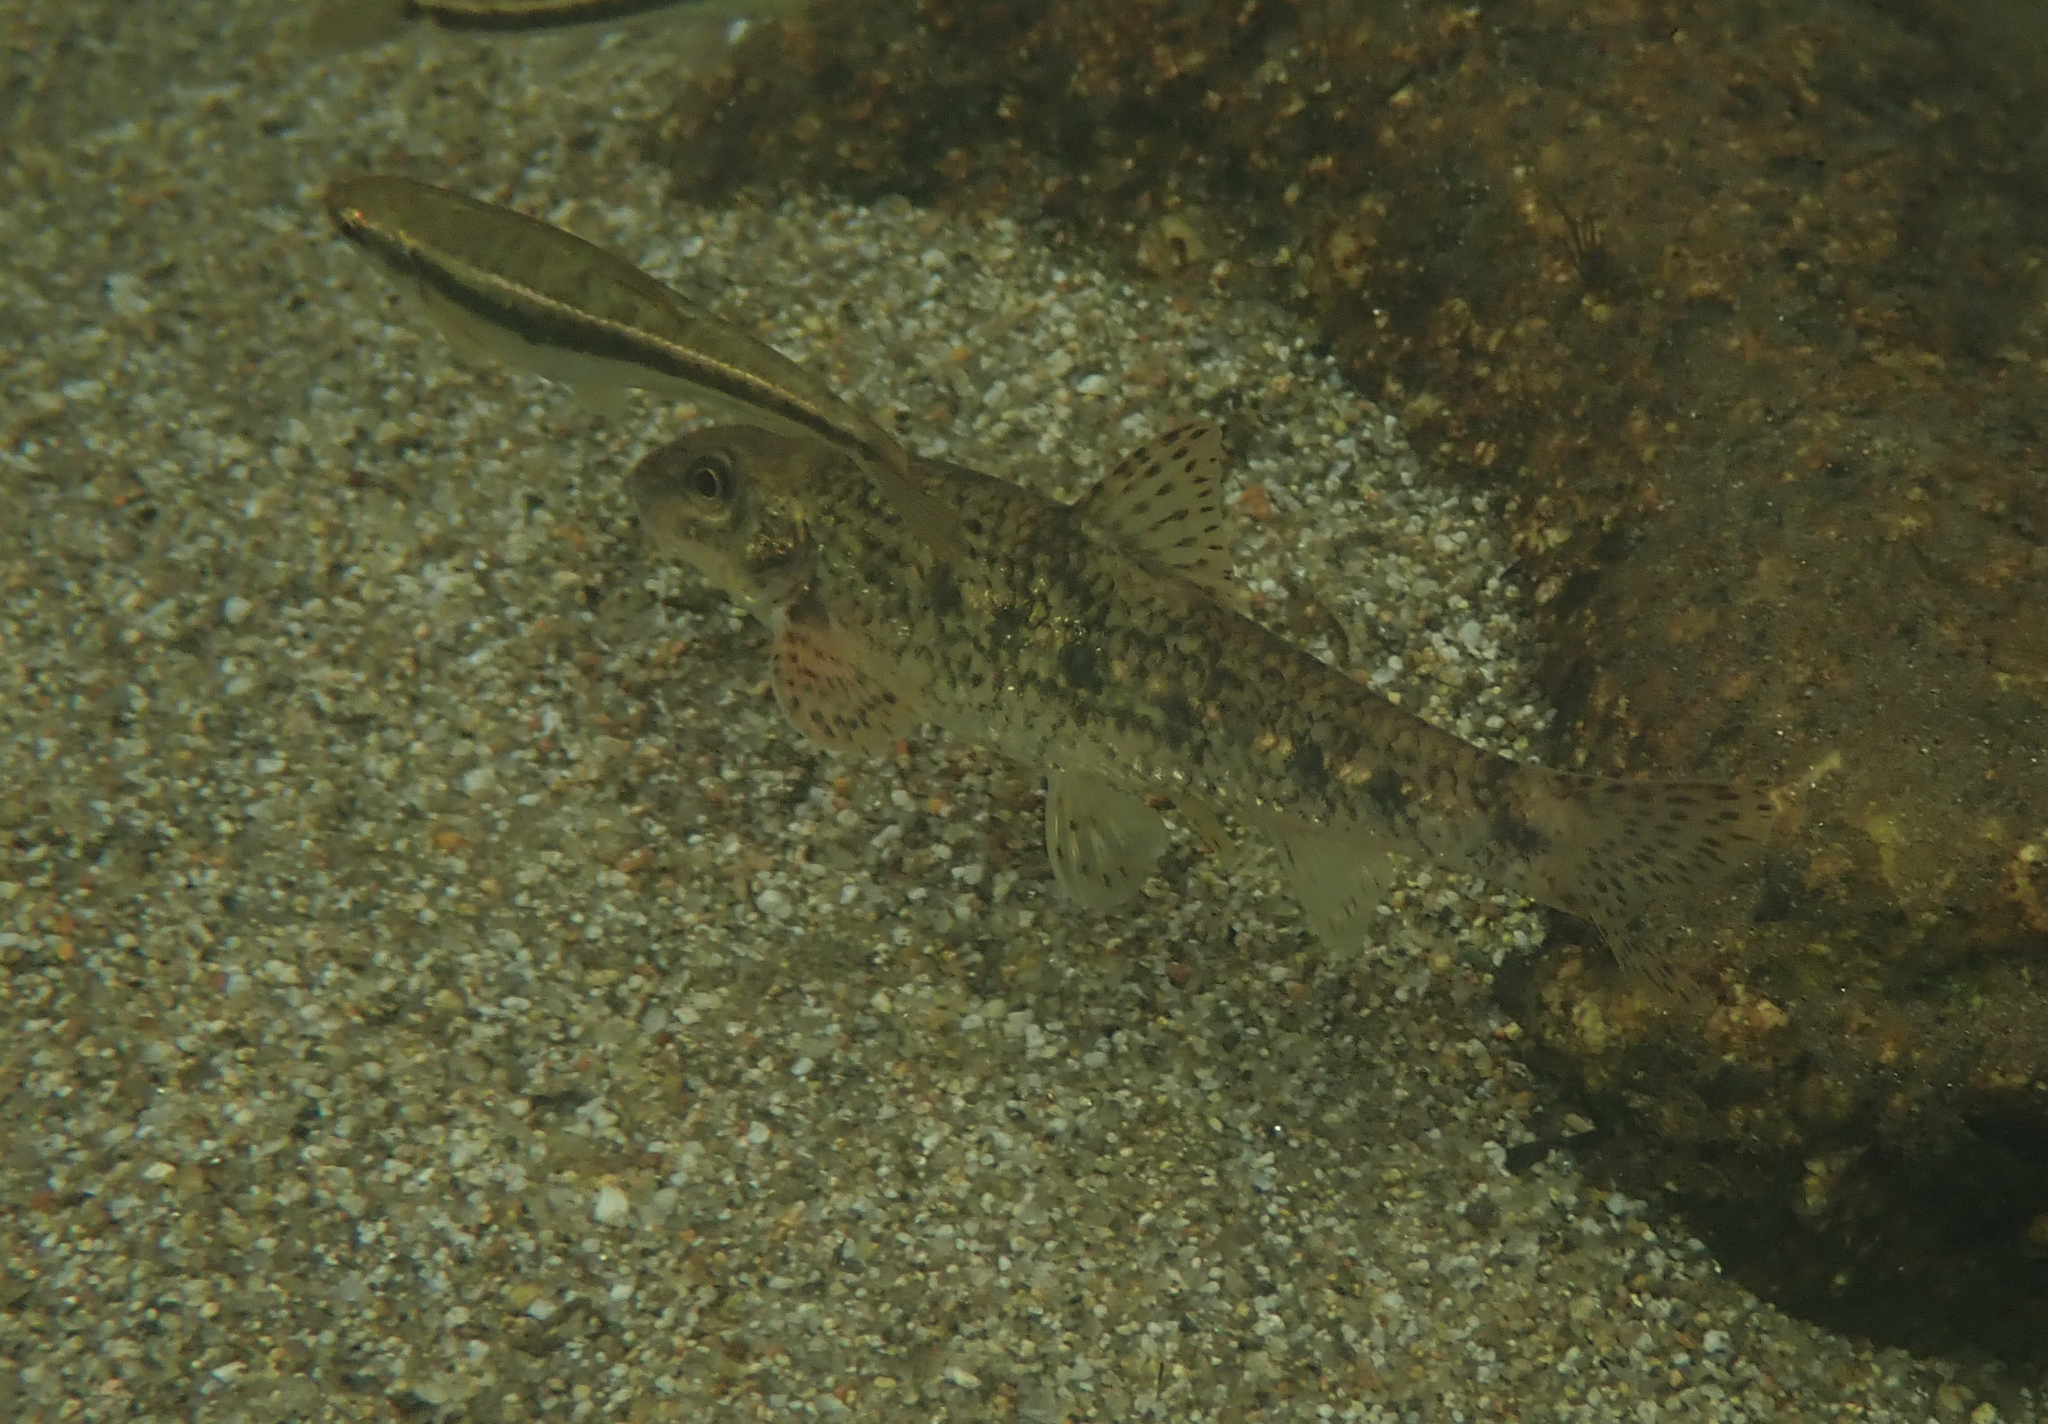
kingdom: Animalia
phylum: Chordata
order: Cypriniformes
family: Cyprinidae
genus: Gobio
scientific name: Gobio occitaniae
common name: Languedoc gudgeon
